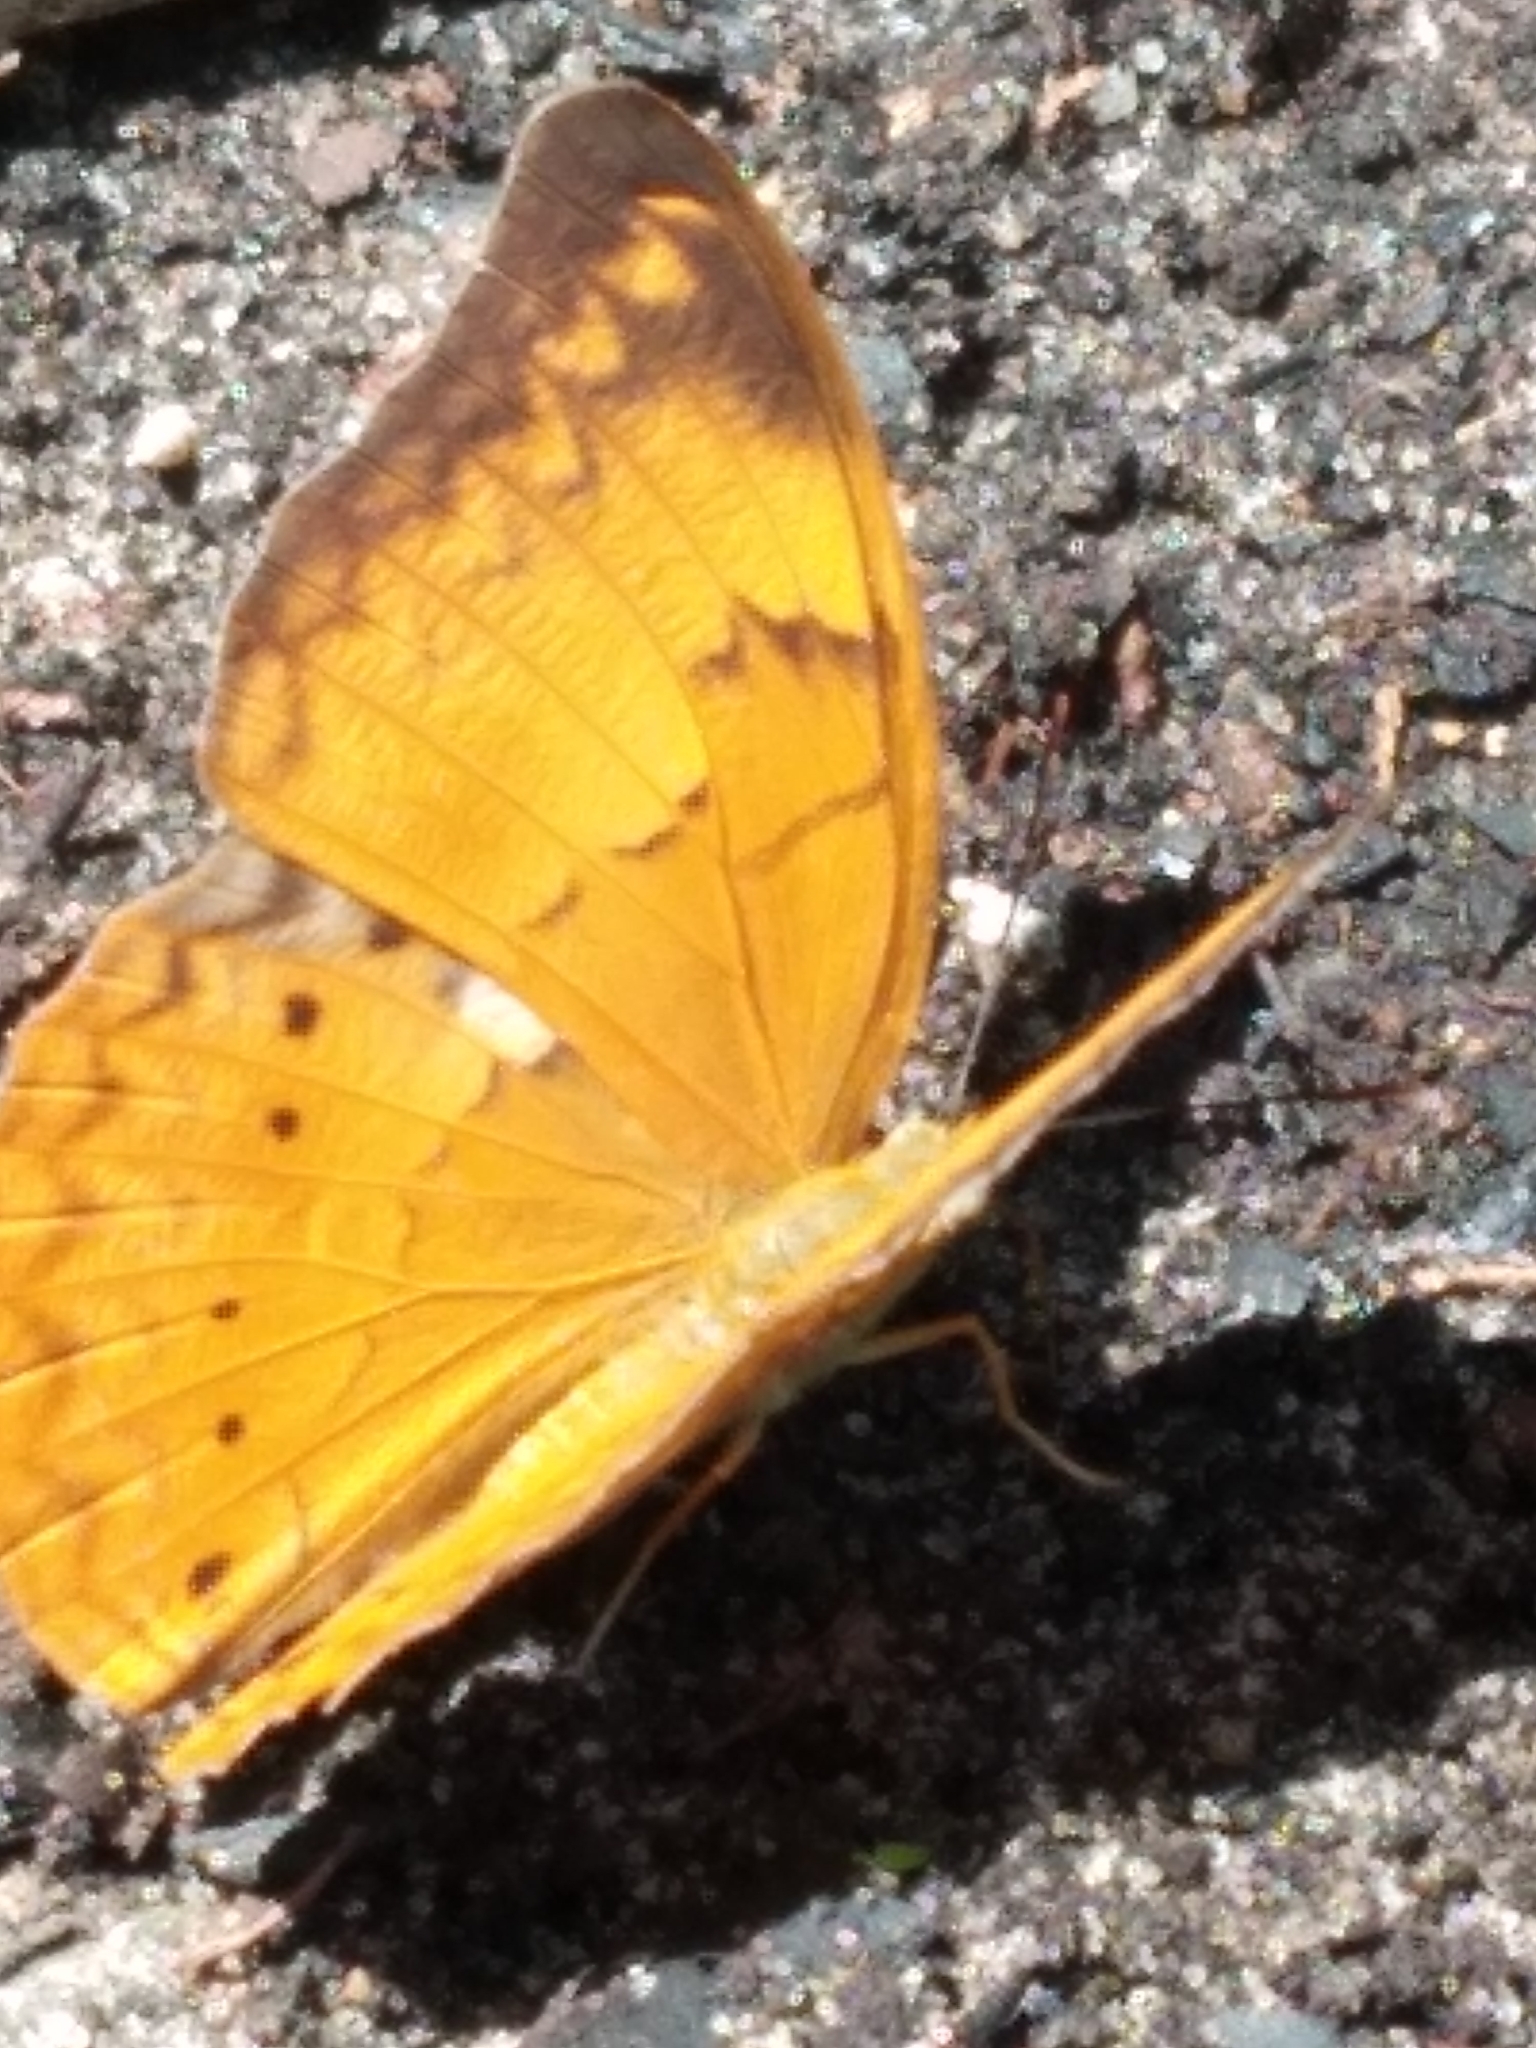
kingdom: Animalia
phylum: Arthropoda
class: Insecta
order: Lepidoptera
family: Nymphalidae
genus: Cirrochroa
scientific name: Cirrochroa thais
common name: Tamil yeoman
